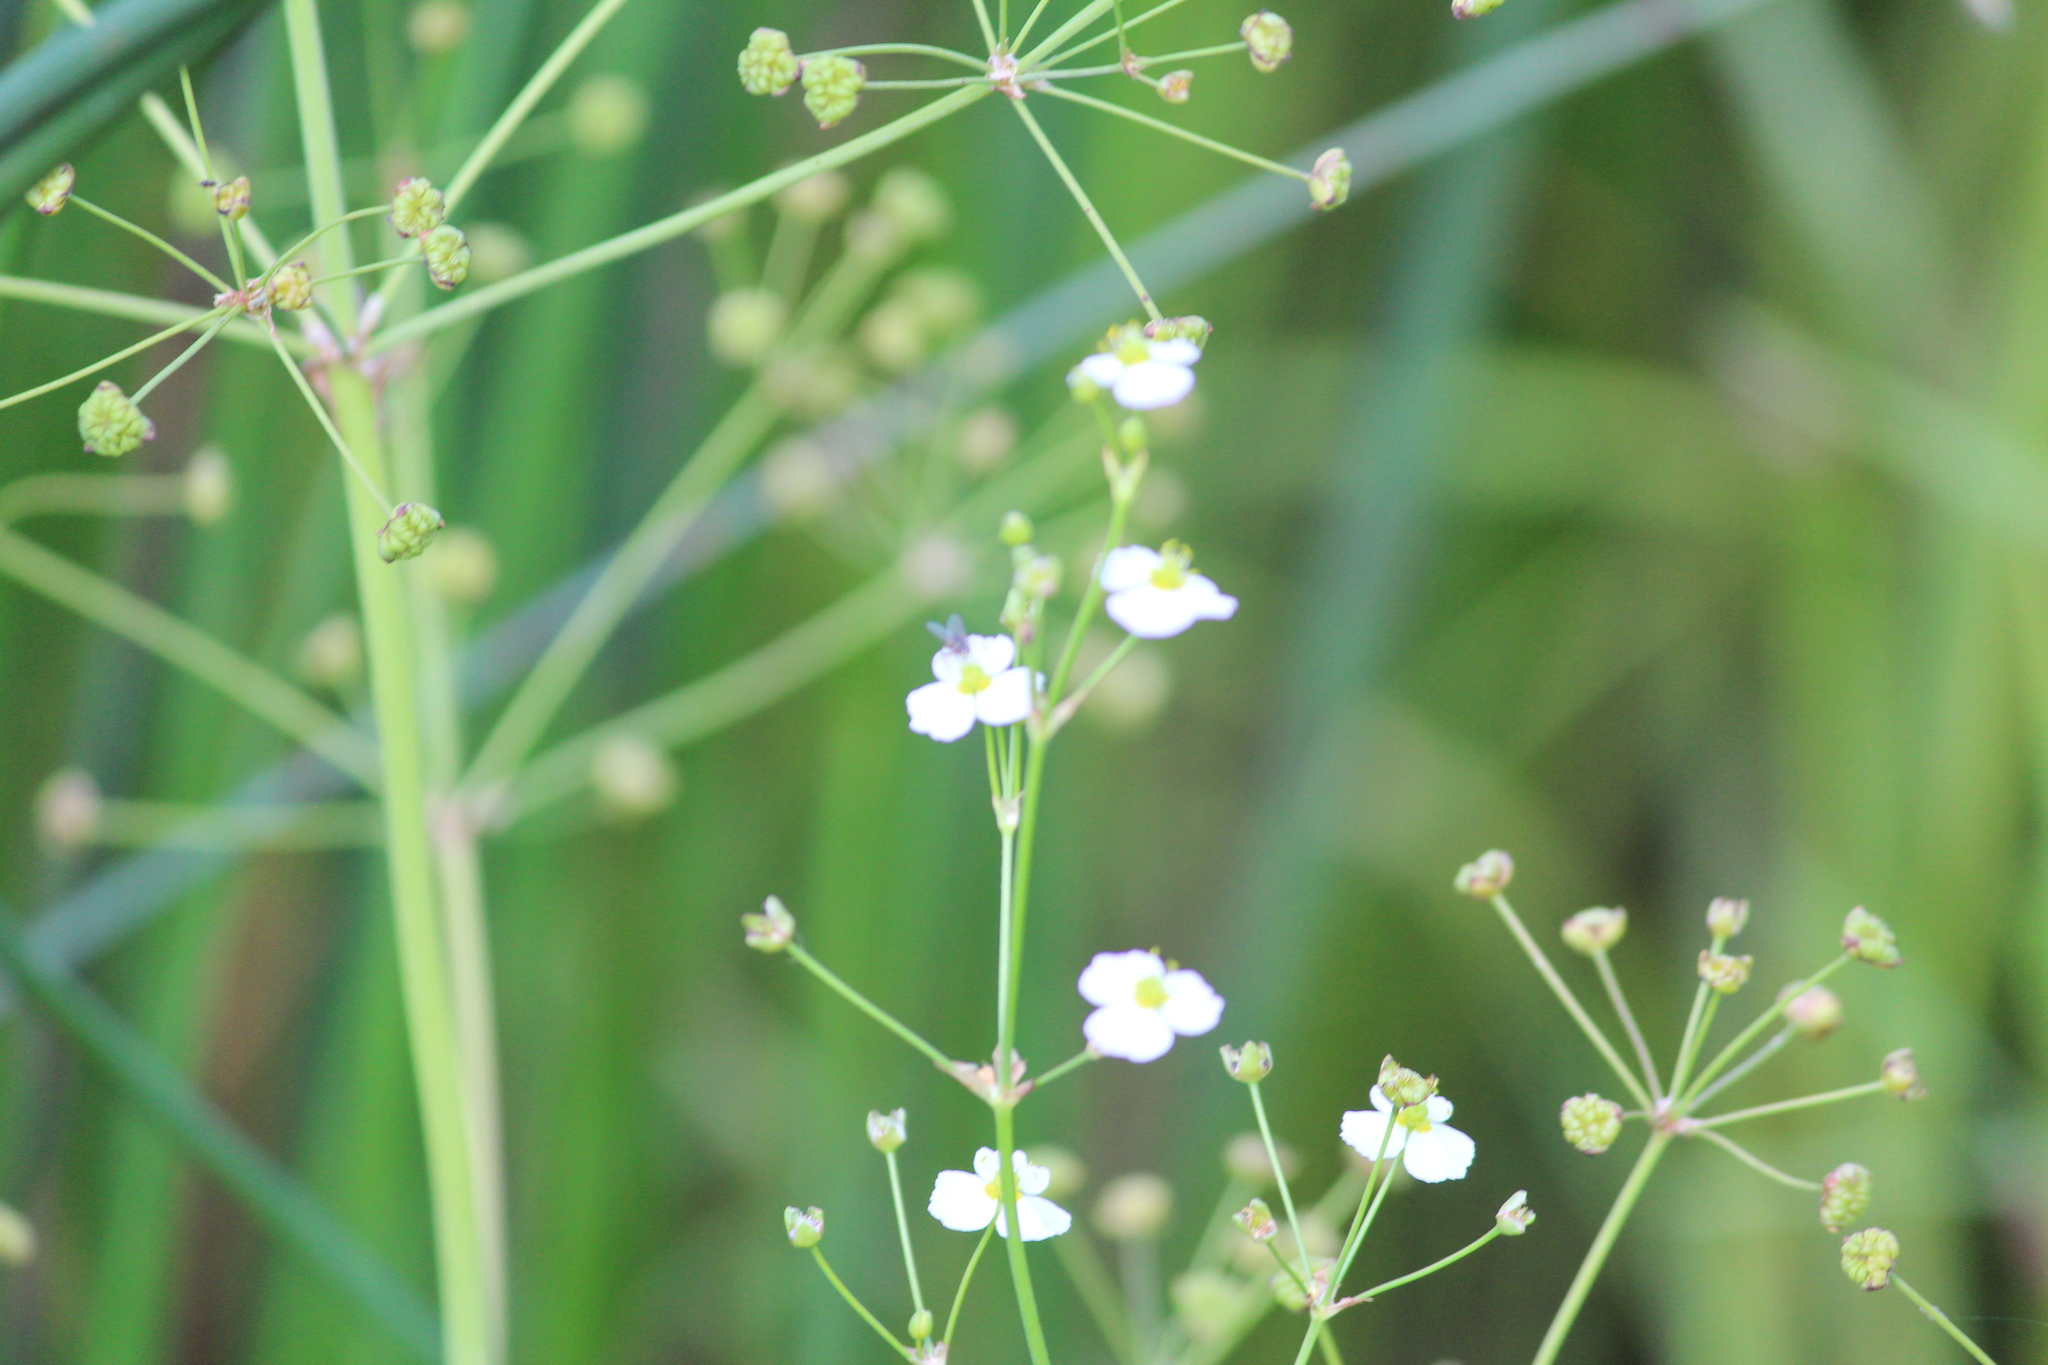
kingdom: Plantae
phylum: Tracheophyta
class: Liliopsida
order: Alismatales
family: Alismataceae
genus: Alisma
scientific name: Alisma plantago-aquatica
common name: Water-plantain
